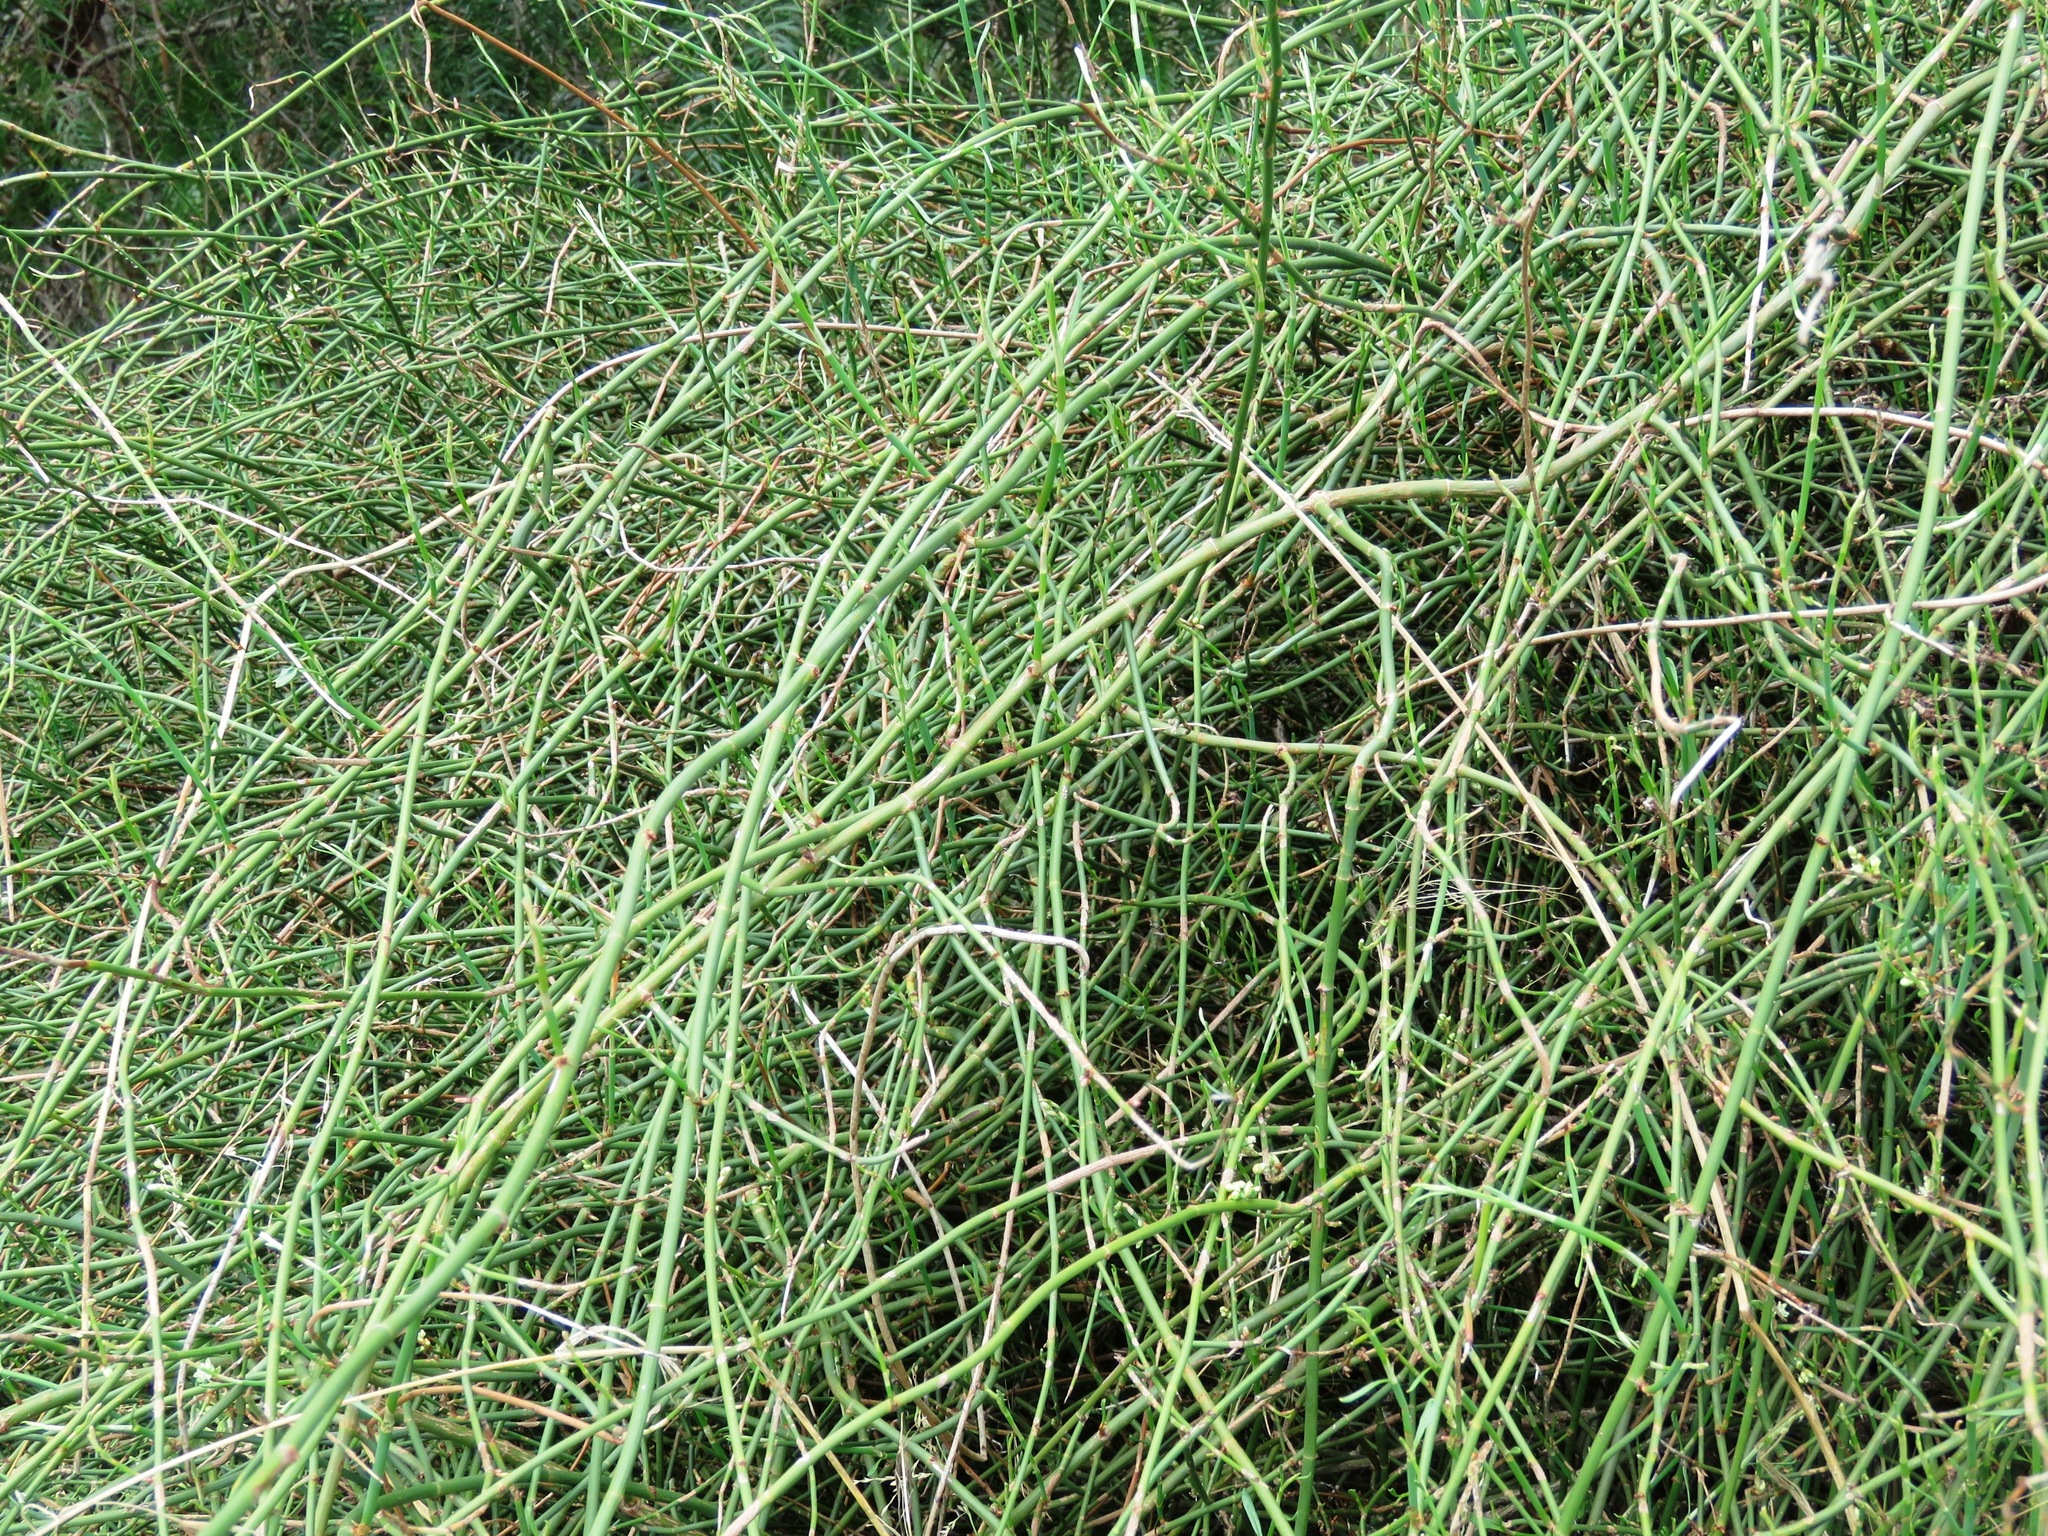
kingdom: Plantae
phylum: Tracheophyta
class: Magnoliopsida
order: Caryophyllales
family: Polygonaceae
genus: Duma
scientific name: Duma florulenta
